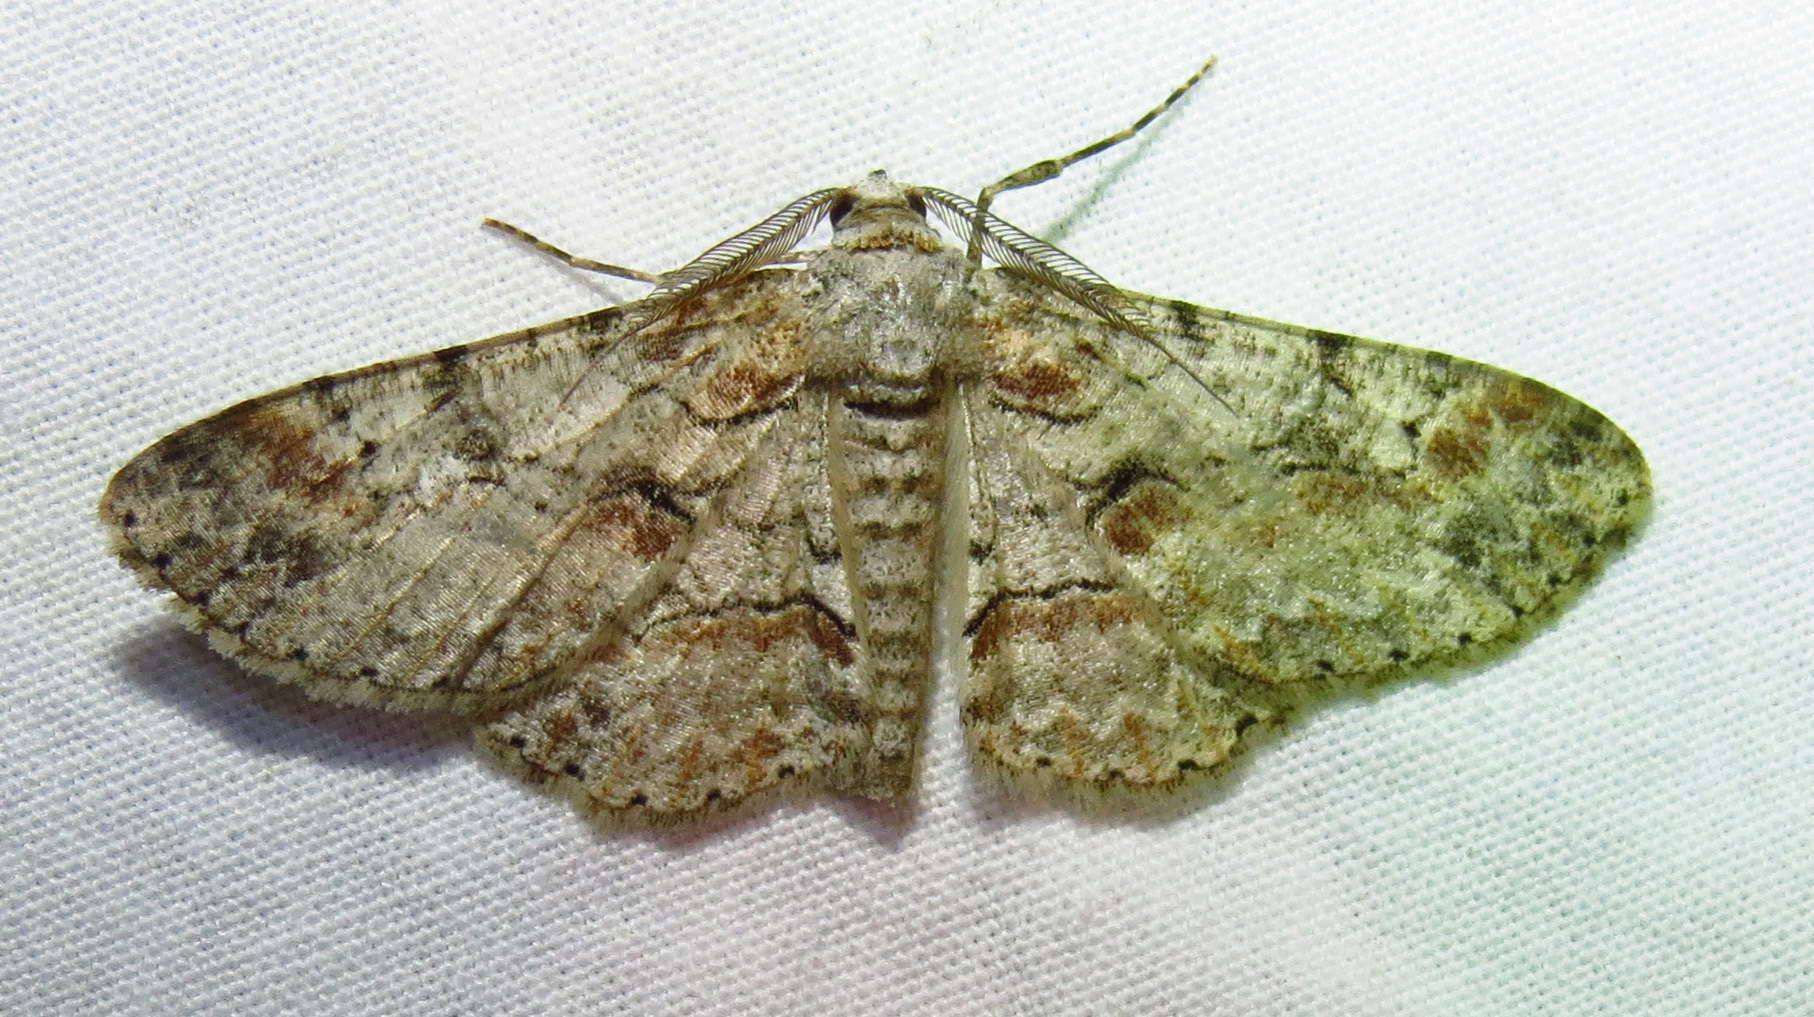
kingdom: Animalia
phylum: Arthropoda
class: Insecta
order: Lepidoptera
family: Geometridae
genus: Iridopsis
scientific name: Iridopsis defectaria
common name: Brown-shaded gray
